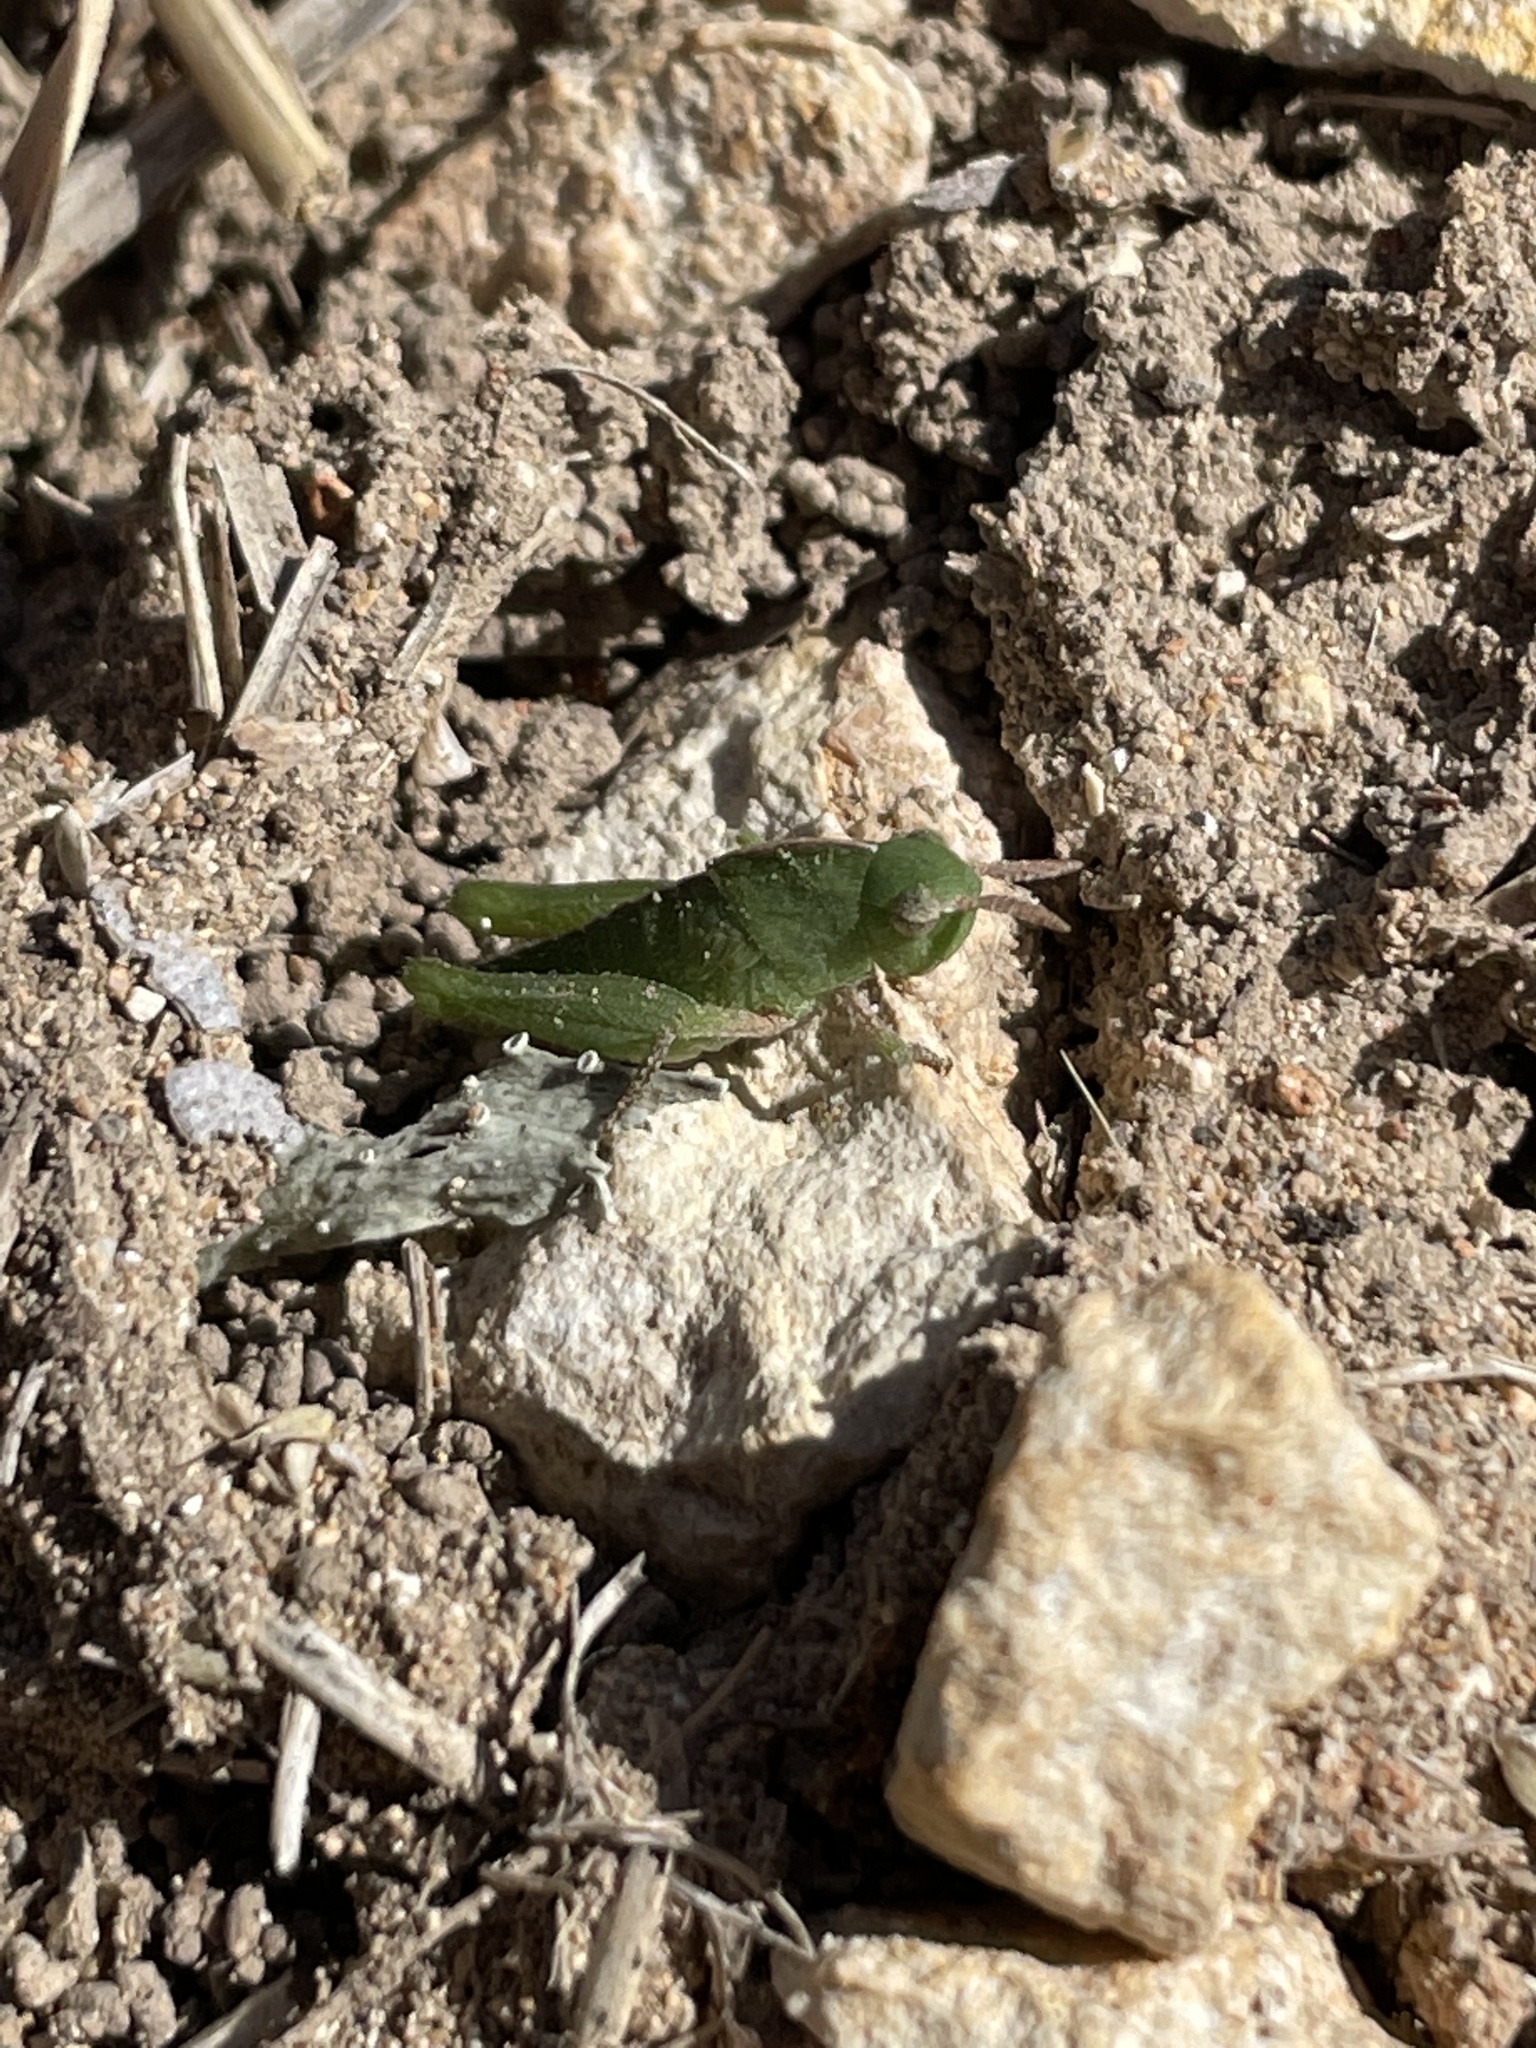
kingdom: Animalia
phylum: Arthropoda
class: Insecta
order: Orthoptera
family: Acrididae
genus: Chortophaga
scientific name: Chortophaga viridifasciata
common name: Green-striped grasshopper
